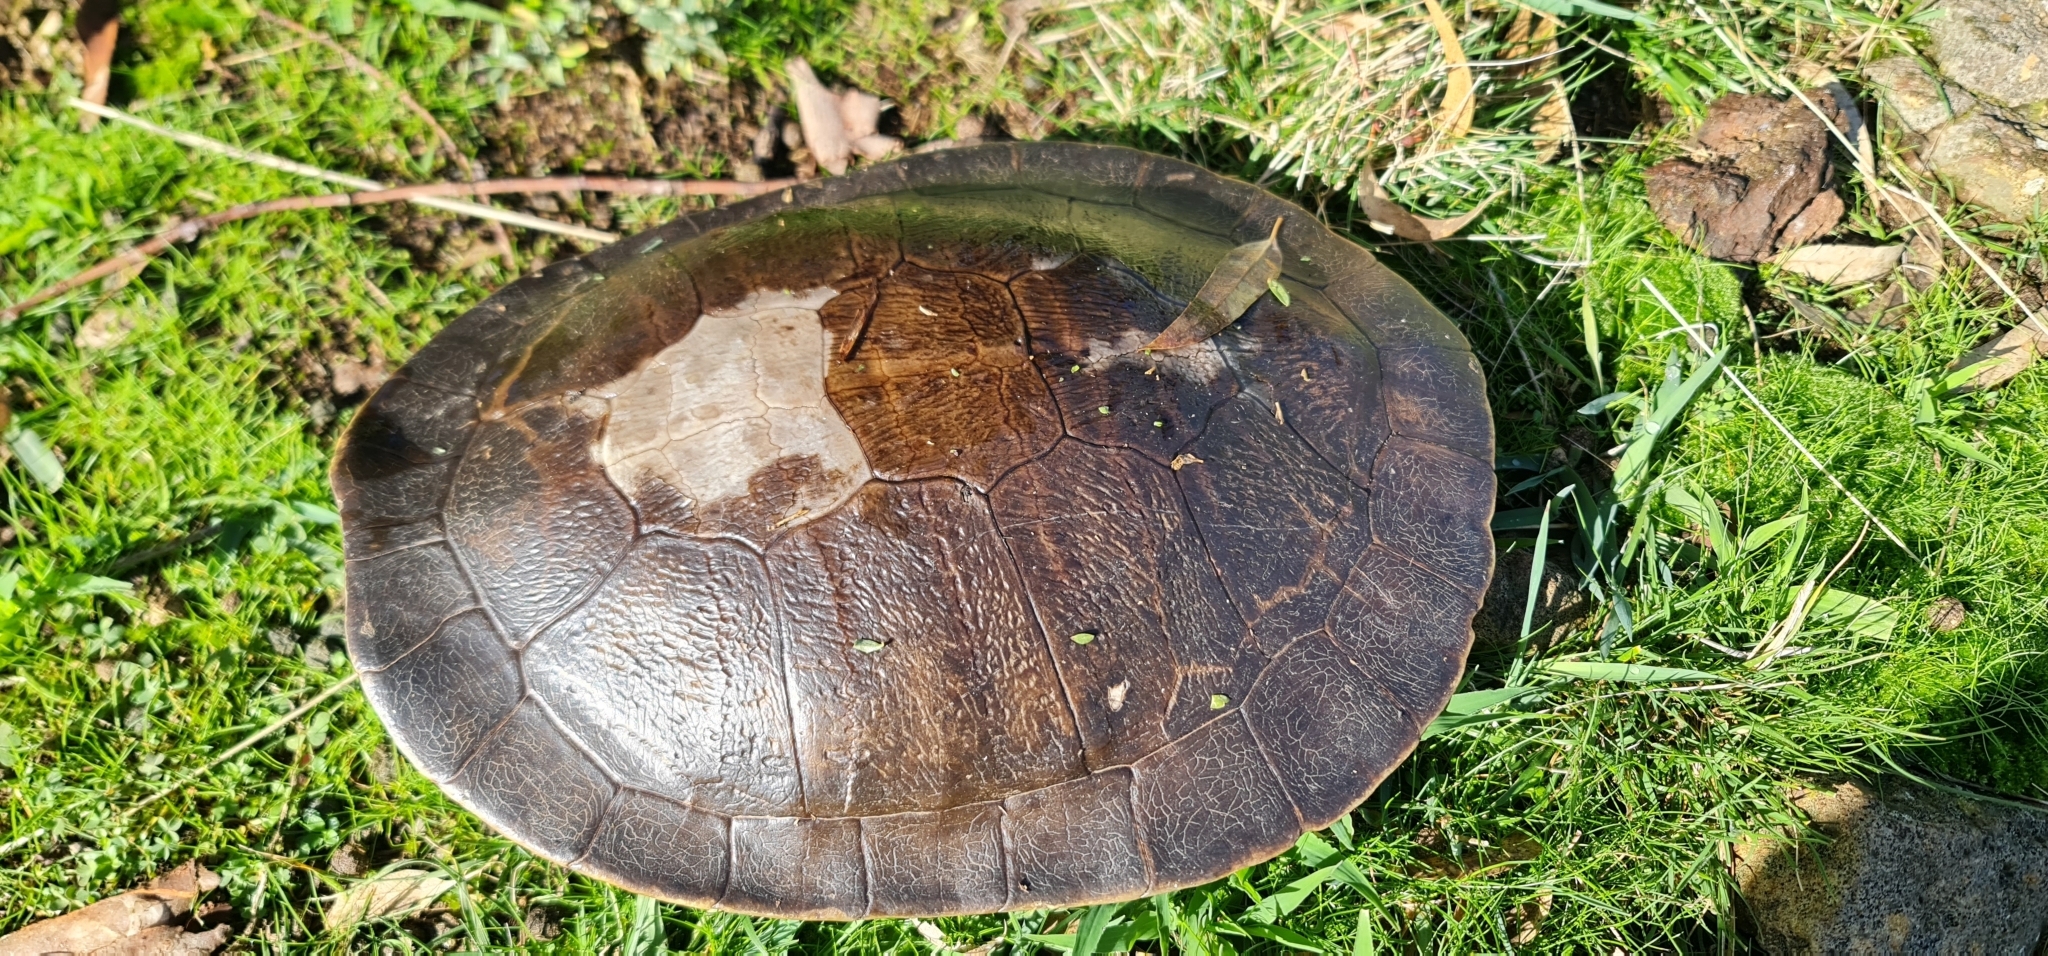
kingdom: Animalia
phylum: Chordata
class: Testudines
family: Chelidae
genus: Emydura
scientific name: Emydura macquarii
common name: Murray river turtle
